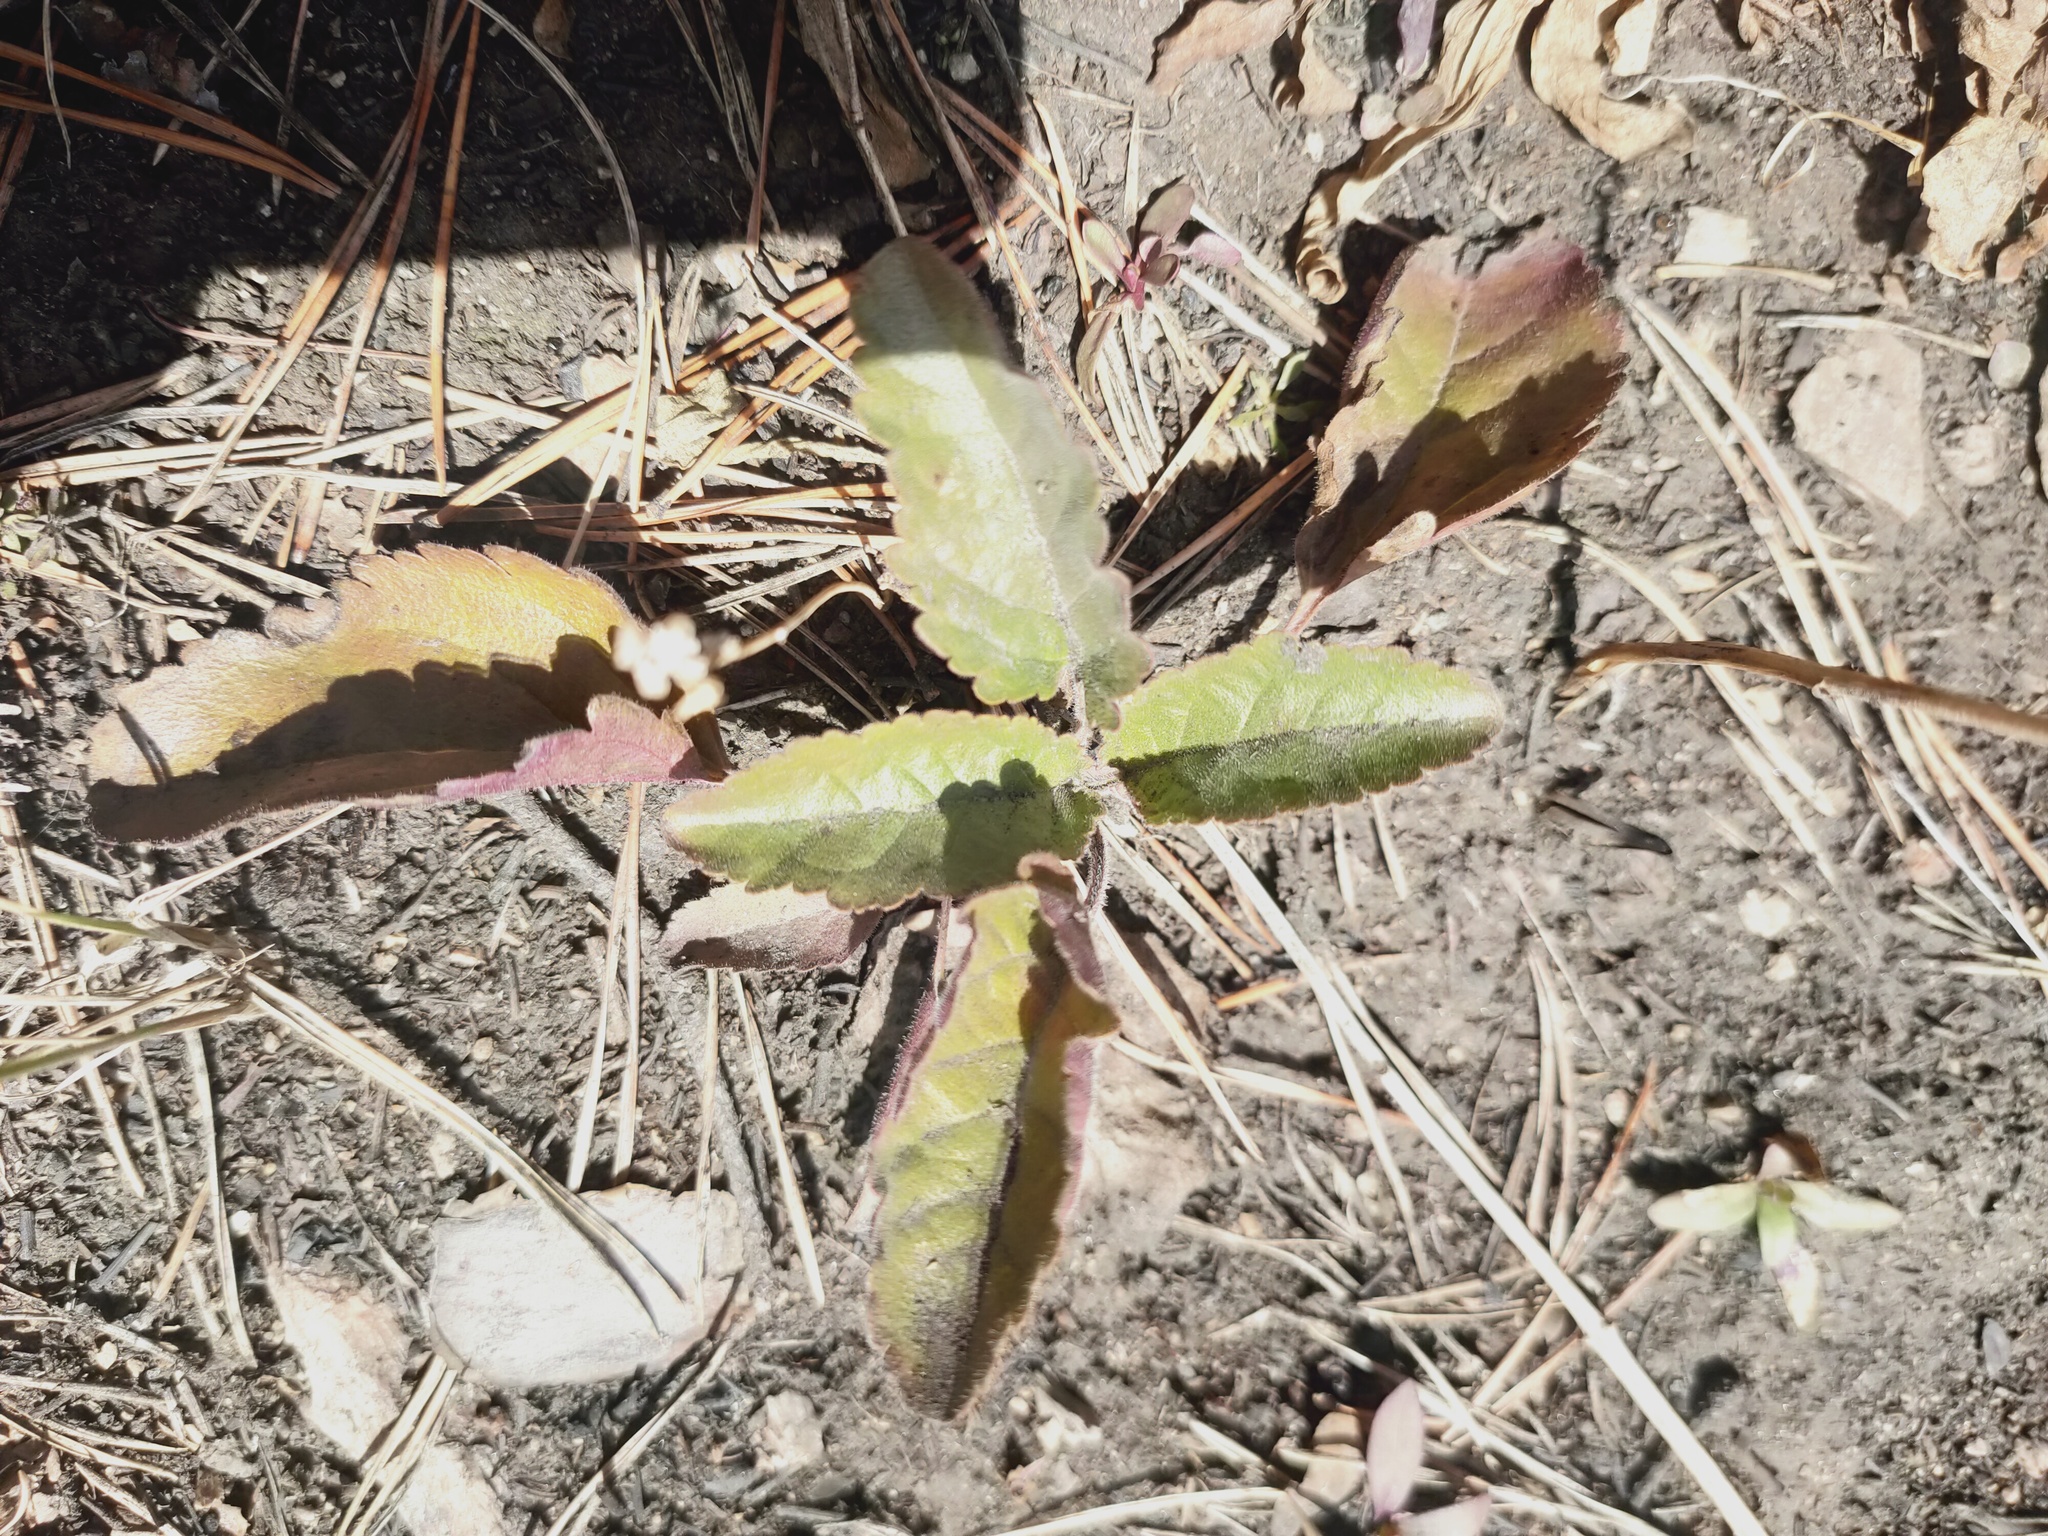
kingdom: Plantae
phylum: Tracheophyta
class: Magnoliopsida
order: Lamiales
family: Plantaginaceae
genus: Veronica
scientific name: Veronica spicata
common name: Spiked speedwell
